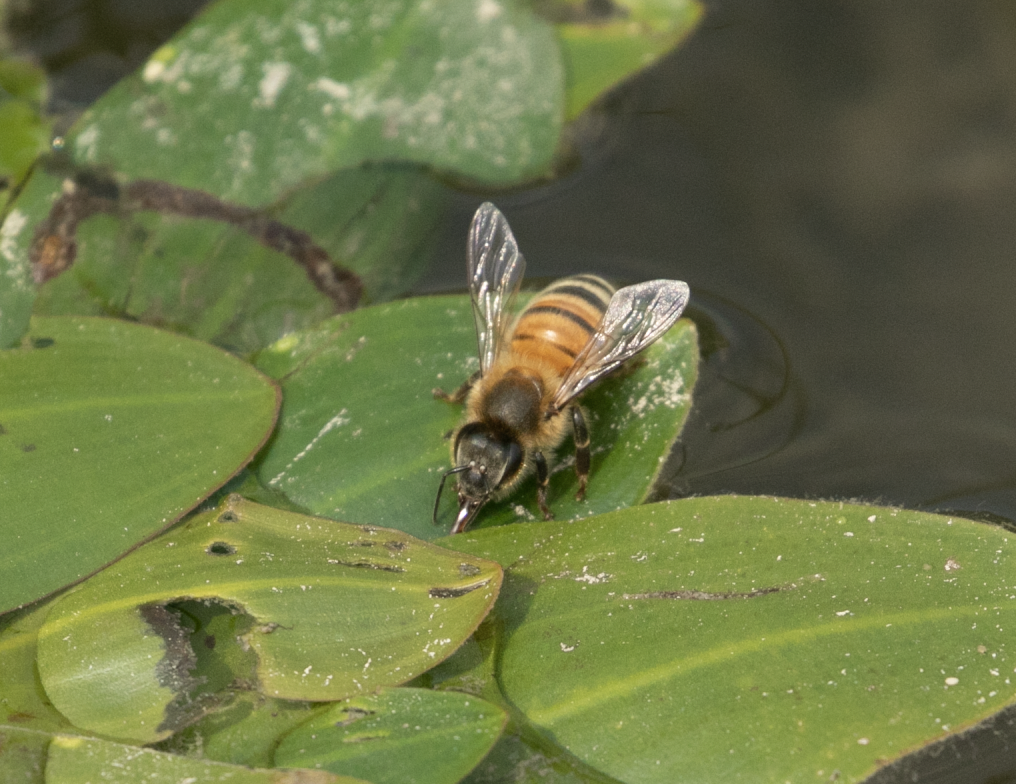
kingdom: Animalia
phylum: Arthropoda
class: Insecta
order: Hymenoptera
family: Apidae
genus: Apis
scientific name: Apis mellifera
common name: Honey bee
